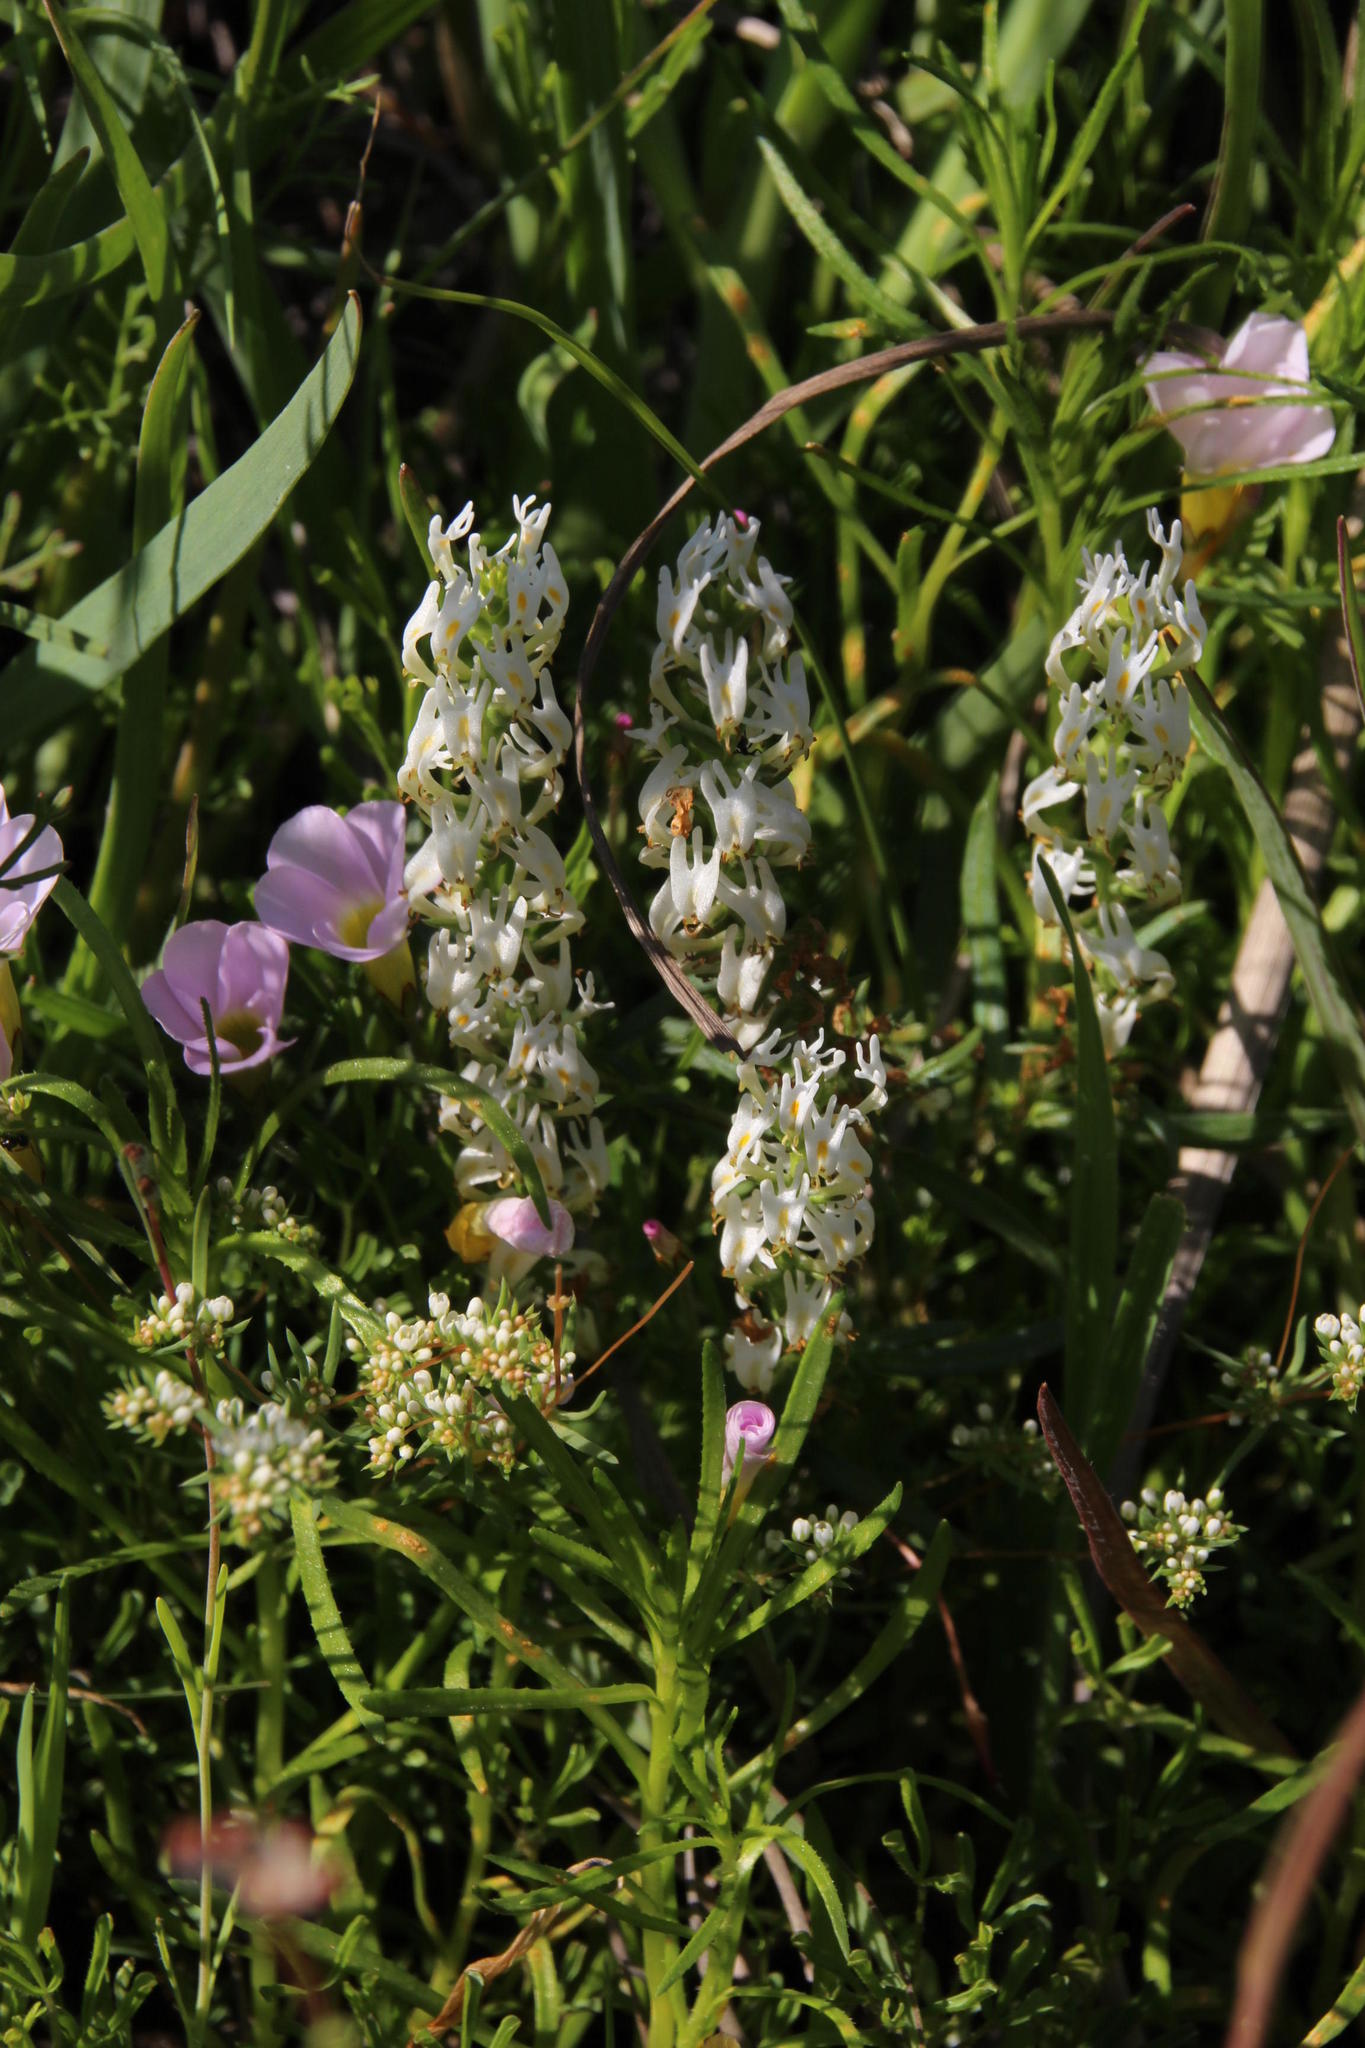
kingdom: Plantae
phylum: Tracheophyta
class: Magnoliopsida
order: Lamiales
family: Scrophulariaceae
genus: Hebenstretia
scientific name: Hebenstretia parviflora
